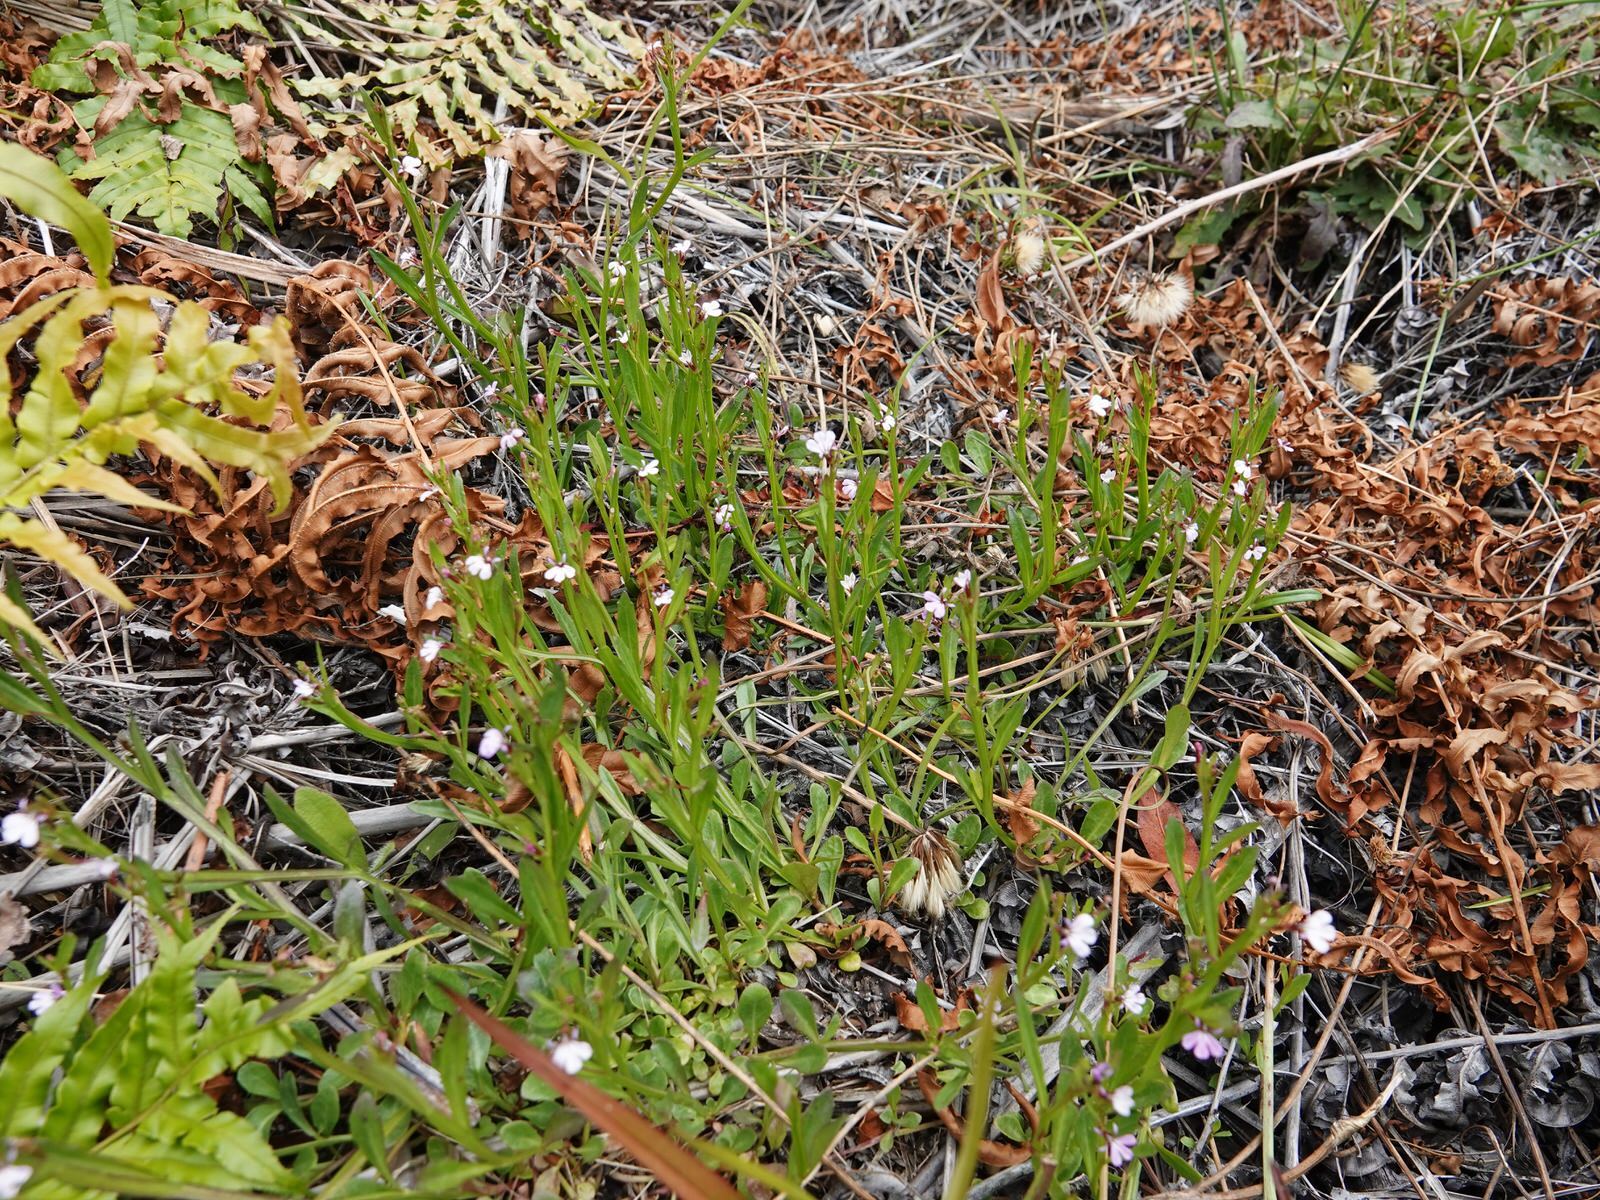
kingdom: Plantae
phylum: Tracheophyta
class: Magnoliopsida
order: Asterales
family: Campanulaceae
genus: Lobelia
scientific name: Lobelia anceps
